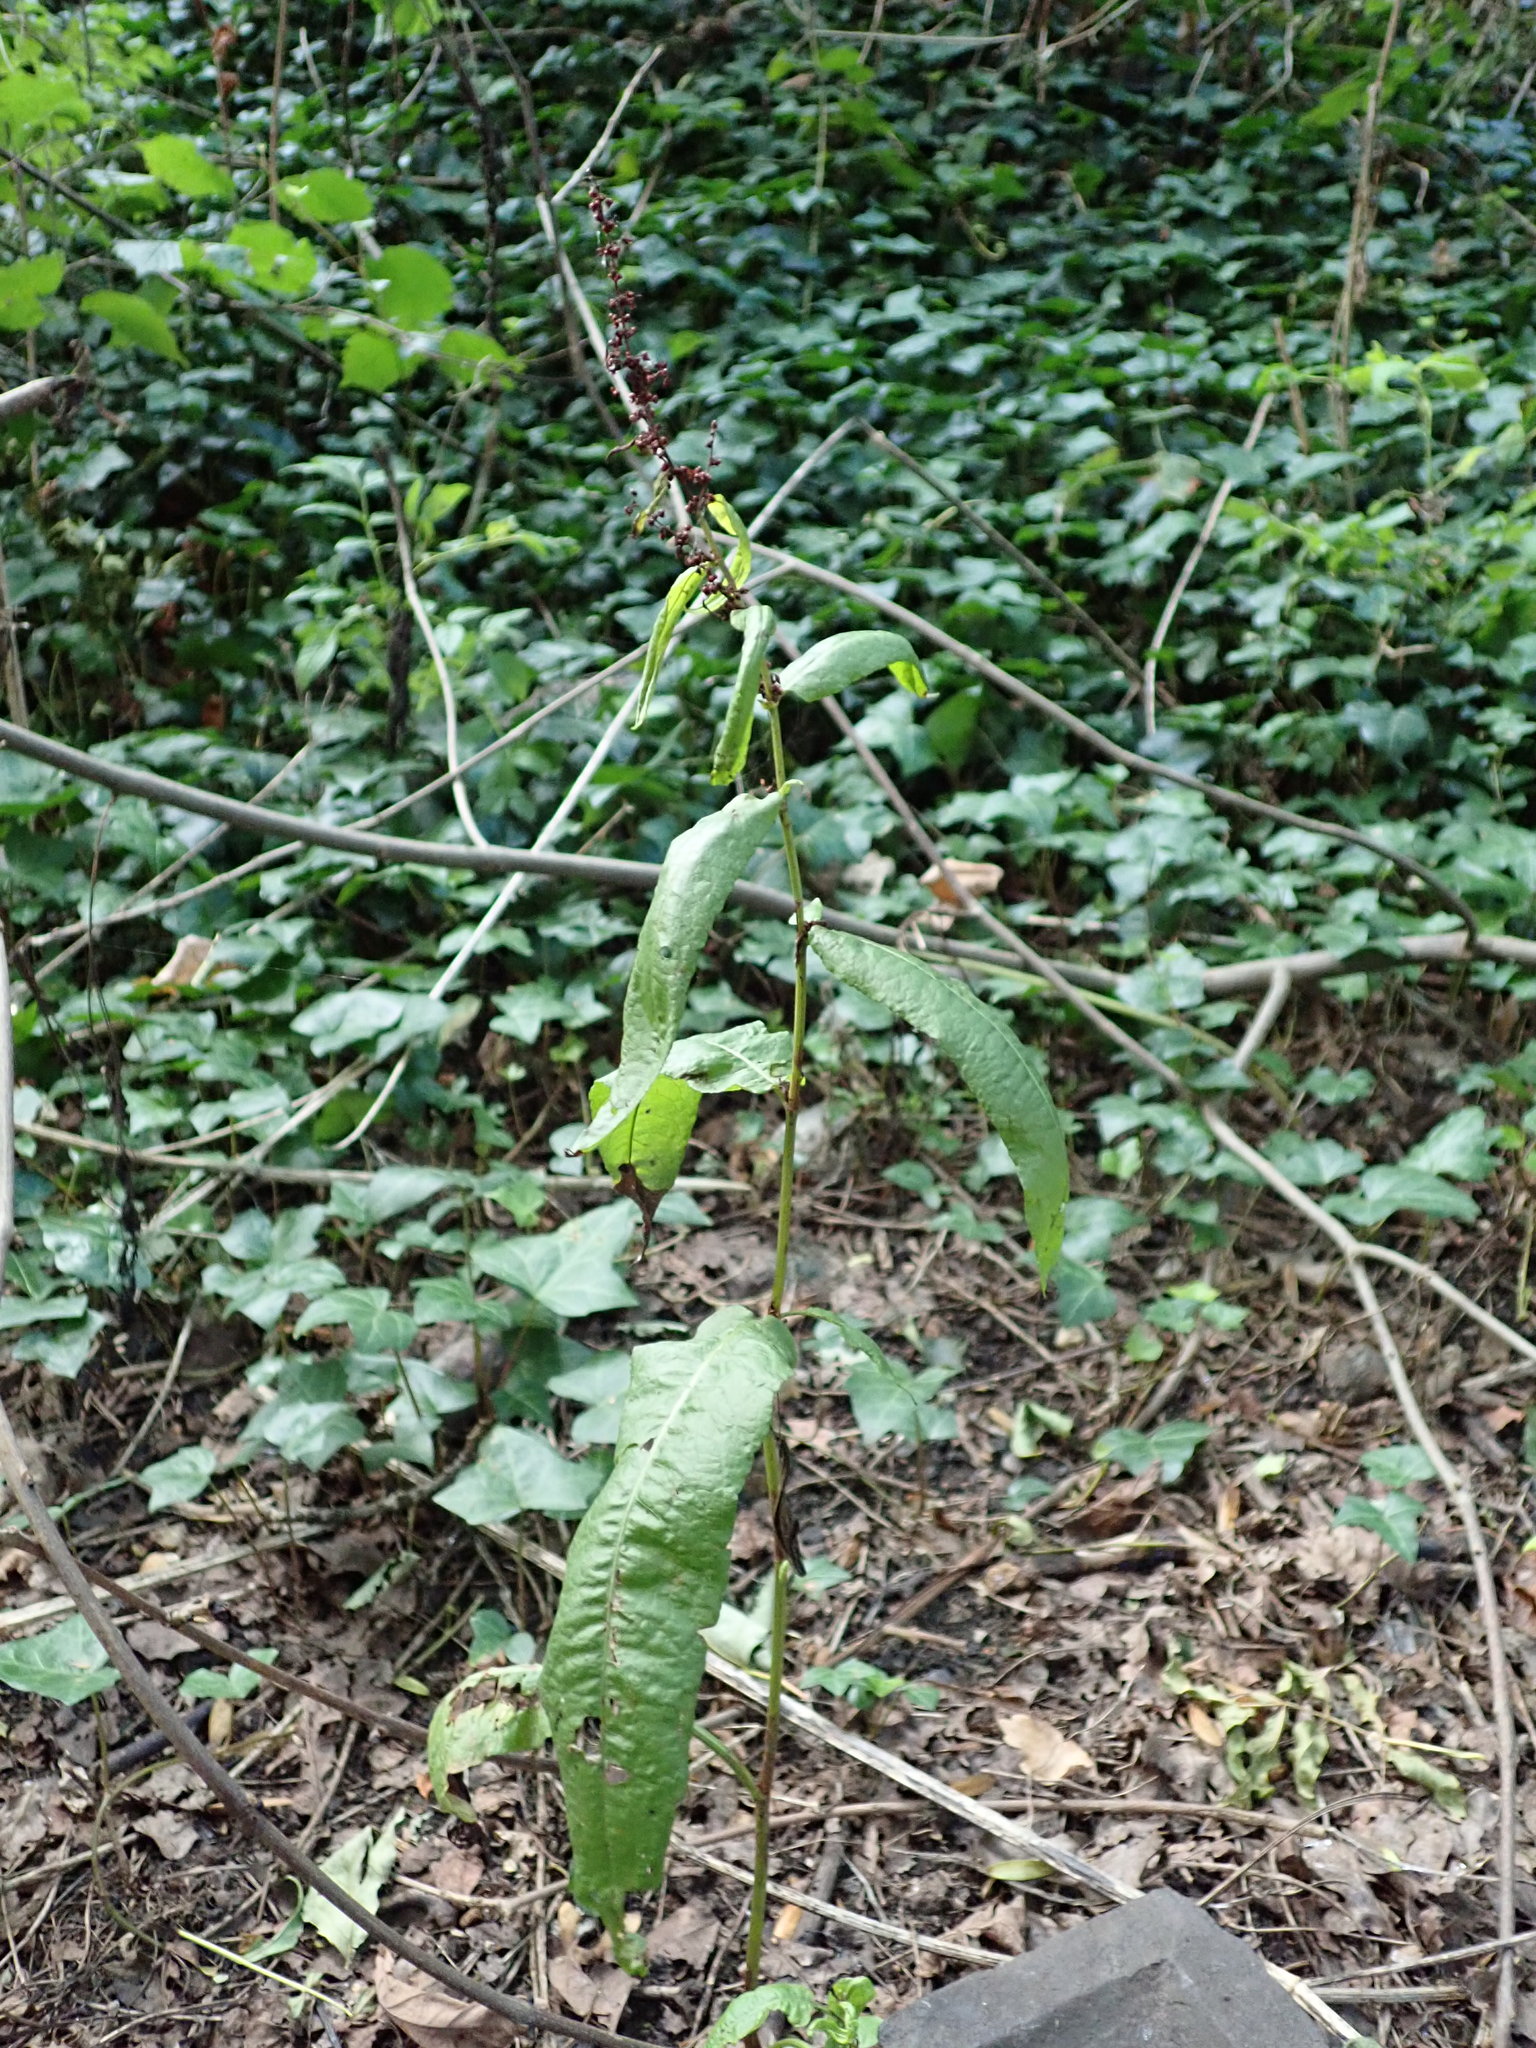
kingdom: Plantae
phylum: Tracheophyta
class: Magnoliopsida
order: Caryophyllales
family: Polygonaceae
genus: Rumex
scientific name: Rumex sanguineus
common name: Wood dock
